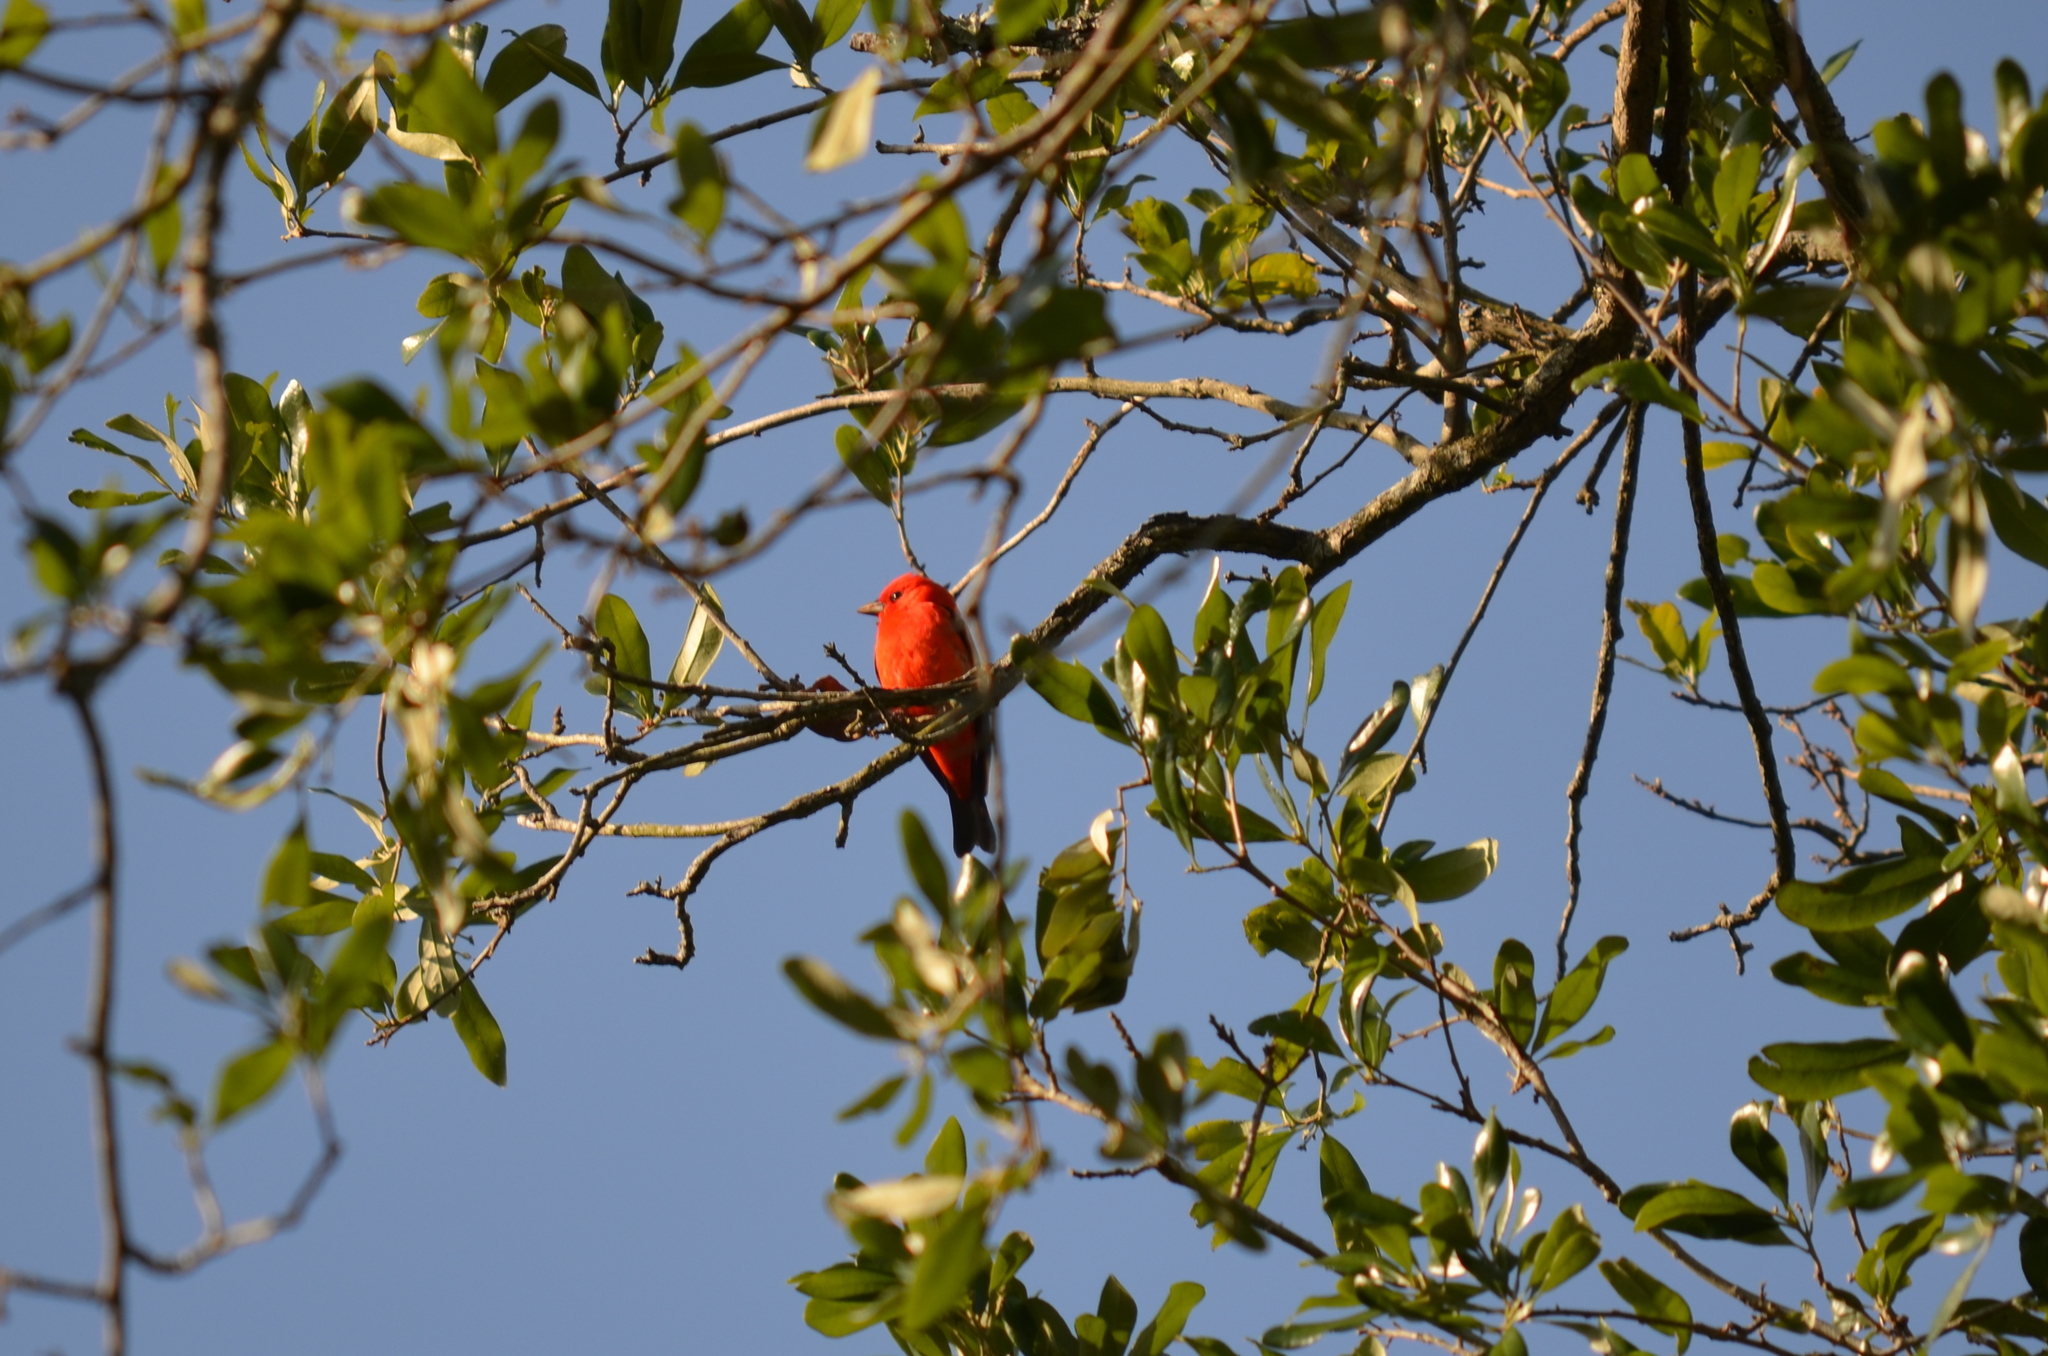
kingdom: Animalia
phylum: Chordata
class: Aves
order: Passeriformes
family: Cardinalidae
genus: Piranga
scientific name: Piranga olivacea
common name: Scarlet tanager
